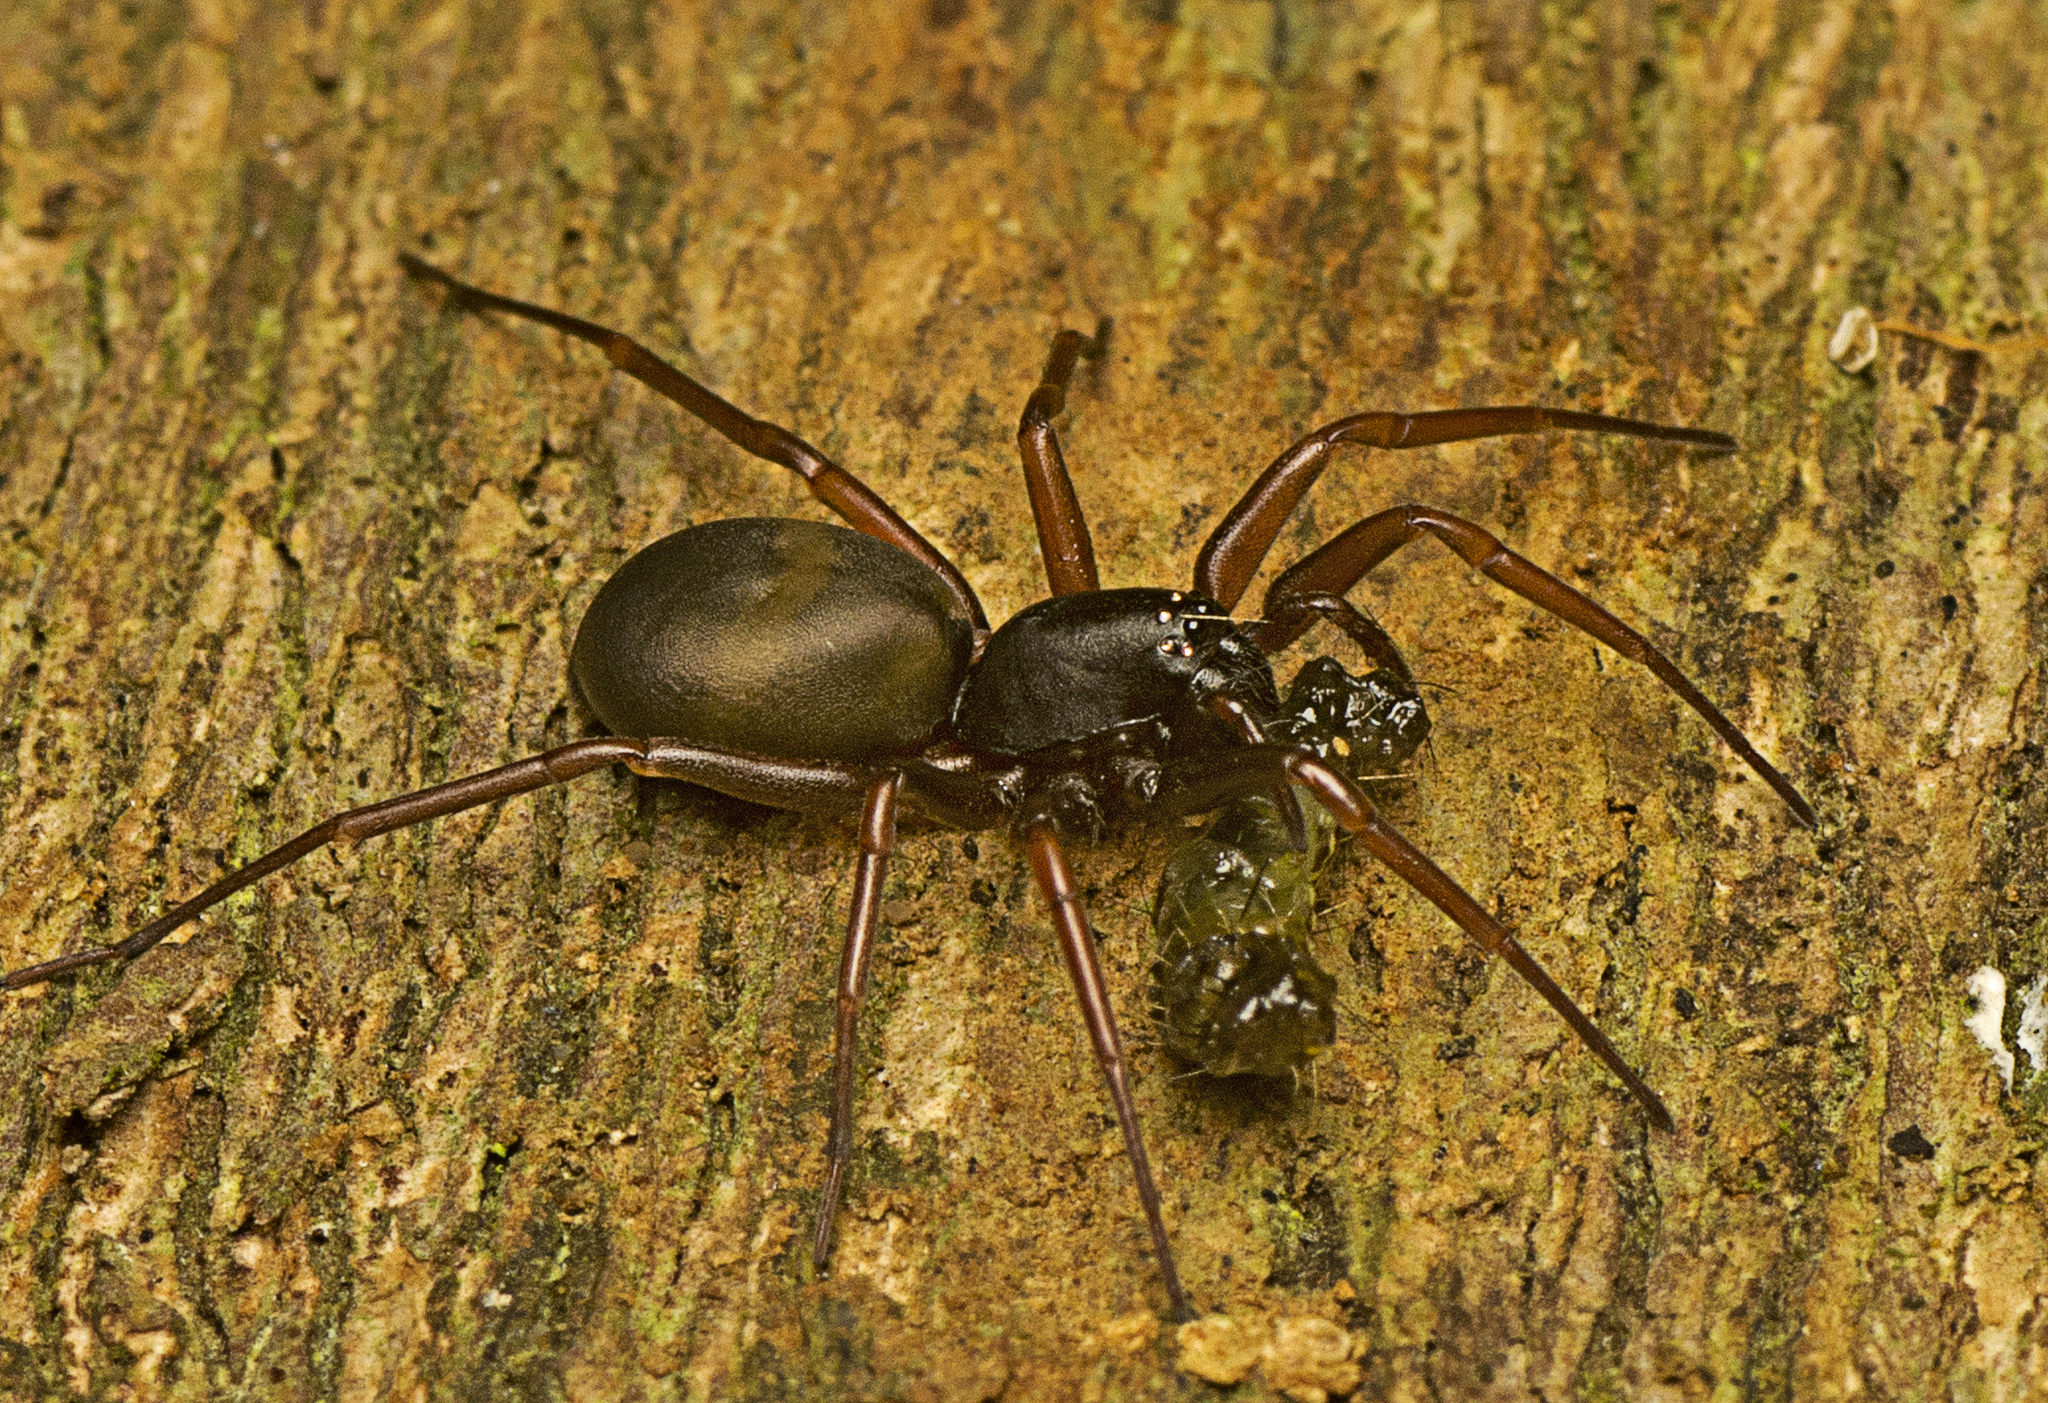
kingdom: Animalia
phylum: Arthropoda
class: Arachnida
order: Araneae
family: Lamponidae
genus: Centrothele
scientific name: Centrothele mutica
